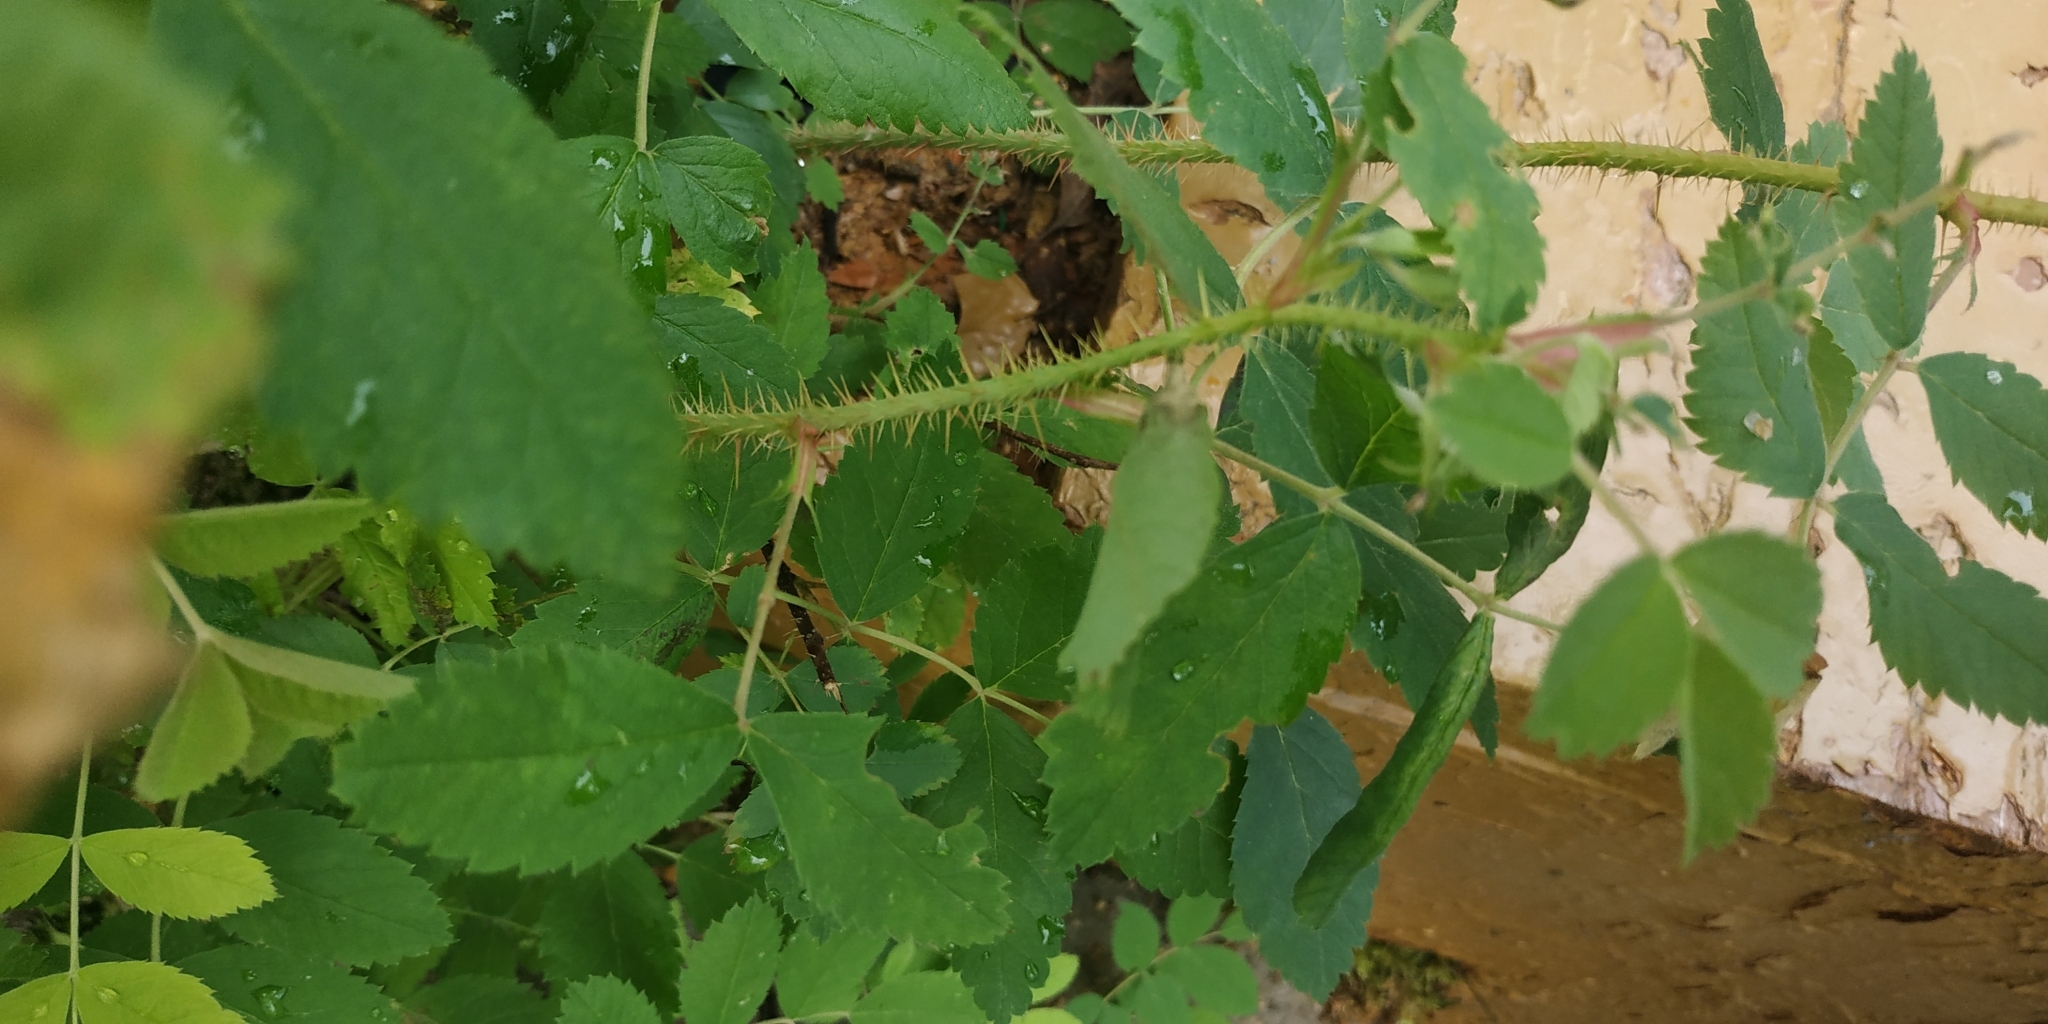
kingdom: Plantae
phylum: Tracheophyta
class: Magnoliopsida
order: Rosales
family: Rosaceae
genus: Rosa
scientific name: Rosa acicularis
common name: Prickly rose
